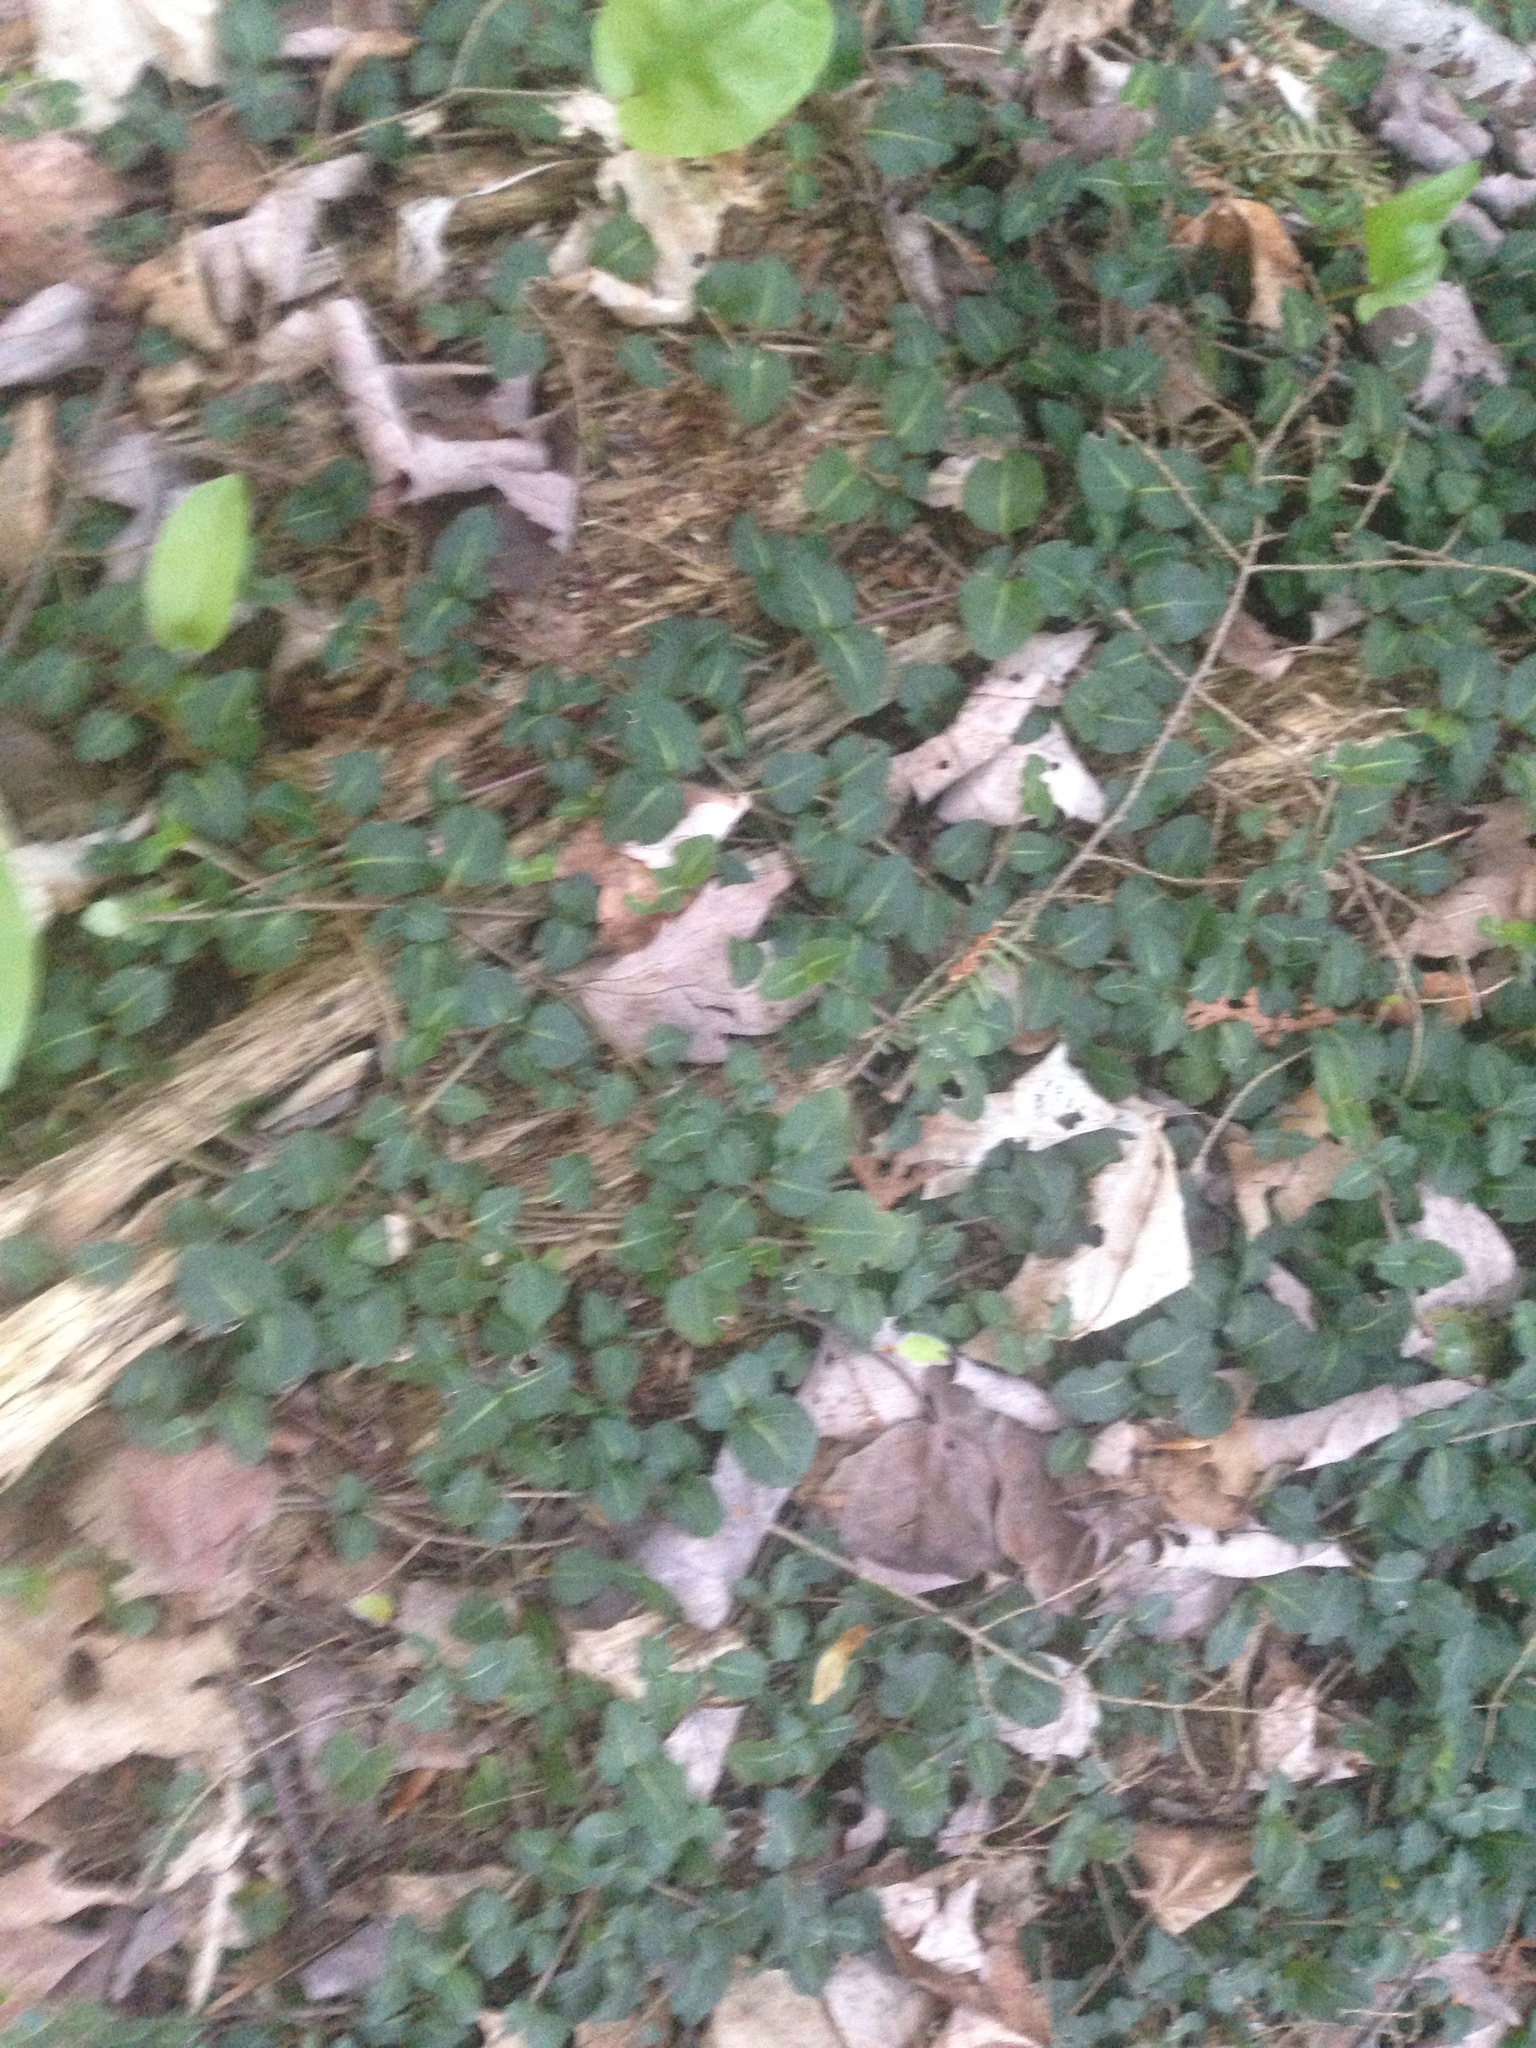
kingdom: Plantae
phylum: Tracheophyta
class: Magnoliopsida
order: Gentianales
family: Rubiaceae
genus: Mitchella
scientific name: Mitchella repens
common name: Partridge-berry
